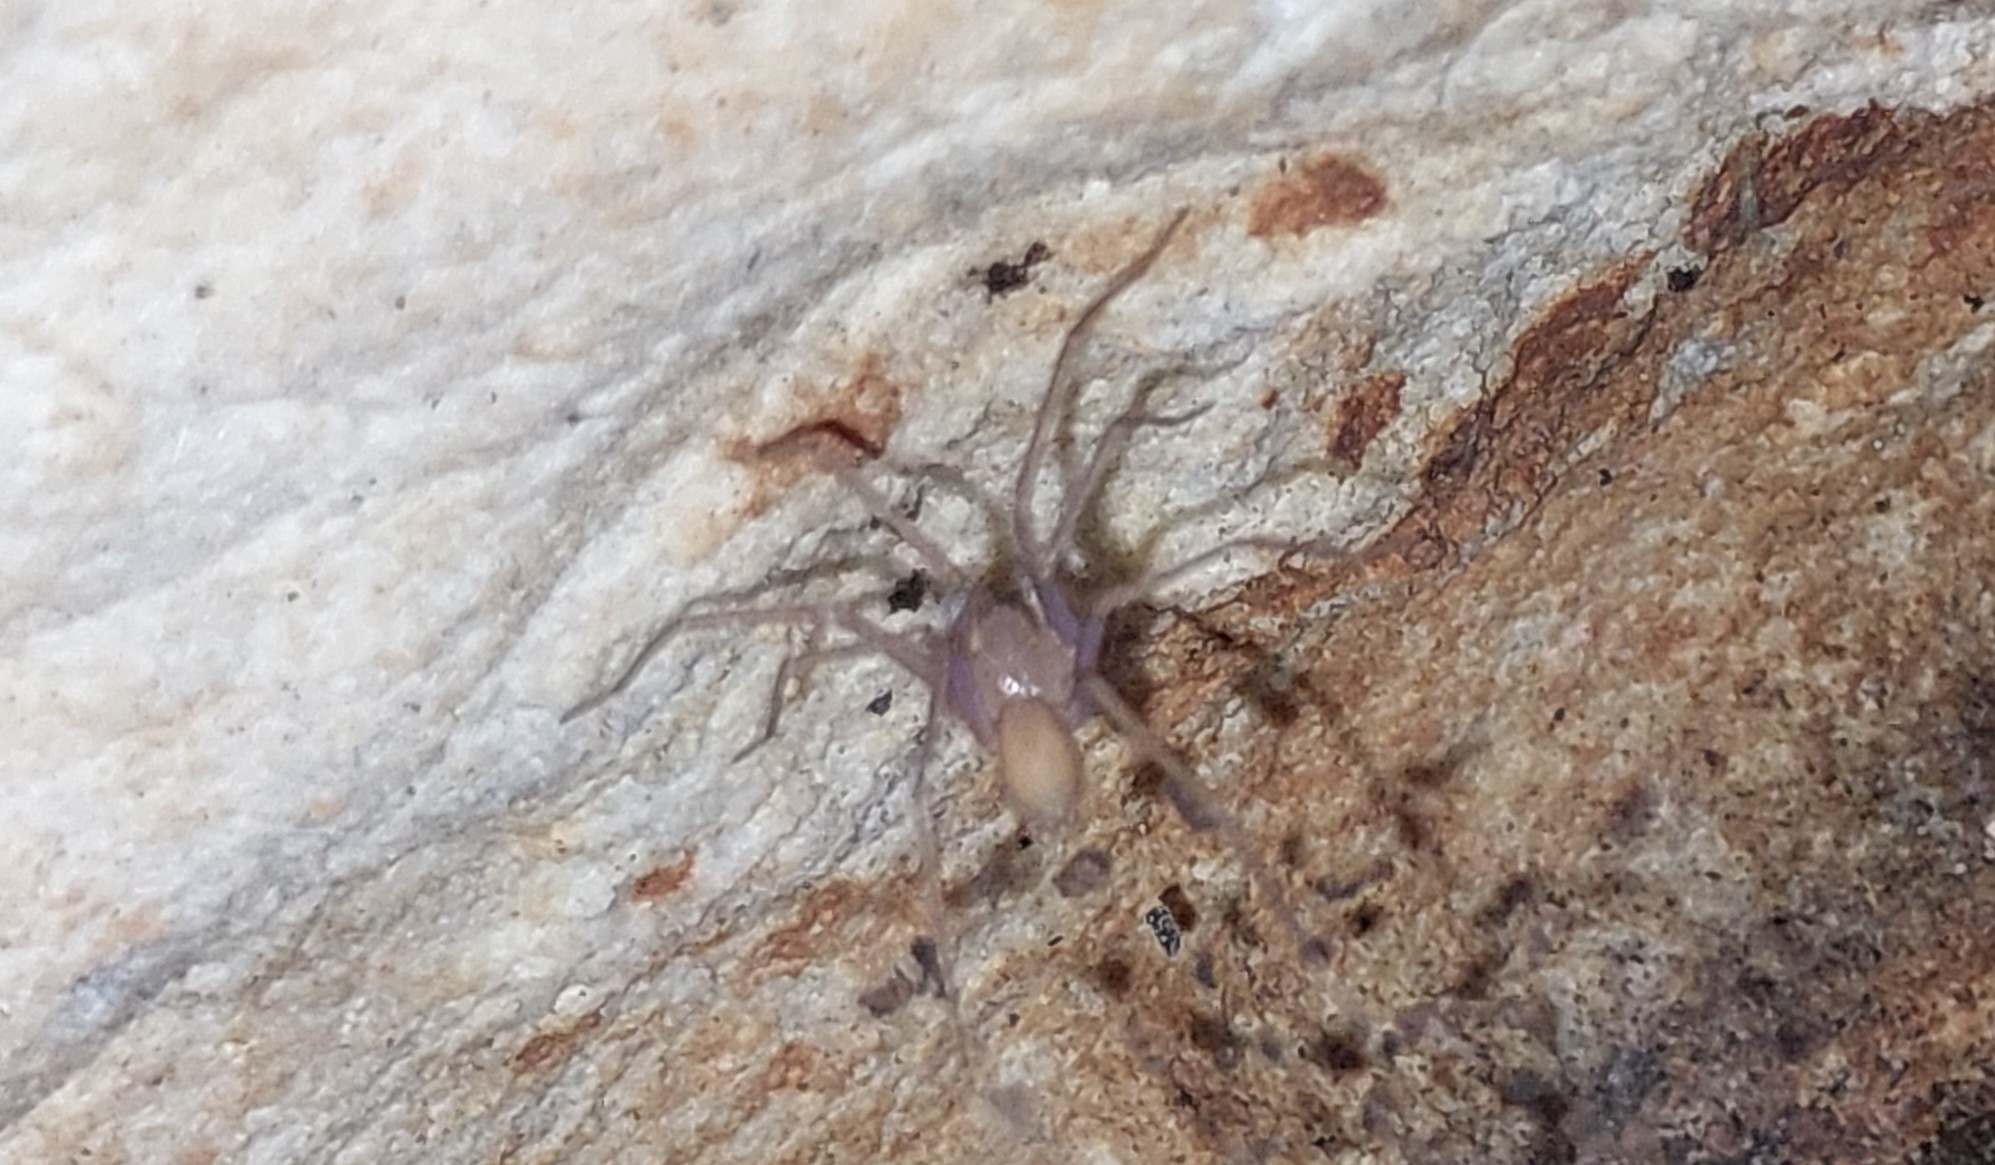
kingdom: Animalia
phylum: Arthropoda
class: Arachnida
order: Araneae
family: Sicariidae
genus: Loxosceles
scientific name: Loxosceles rufescens
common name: Mediterranean recluse spider
